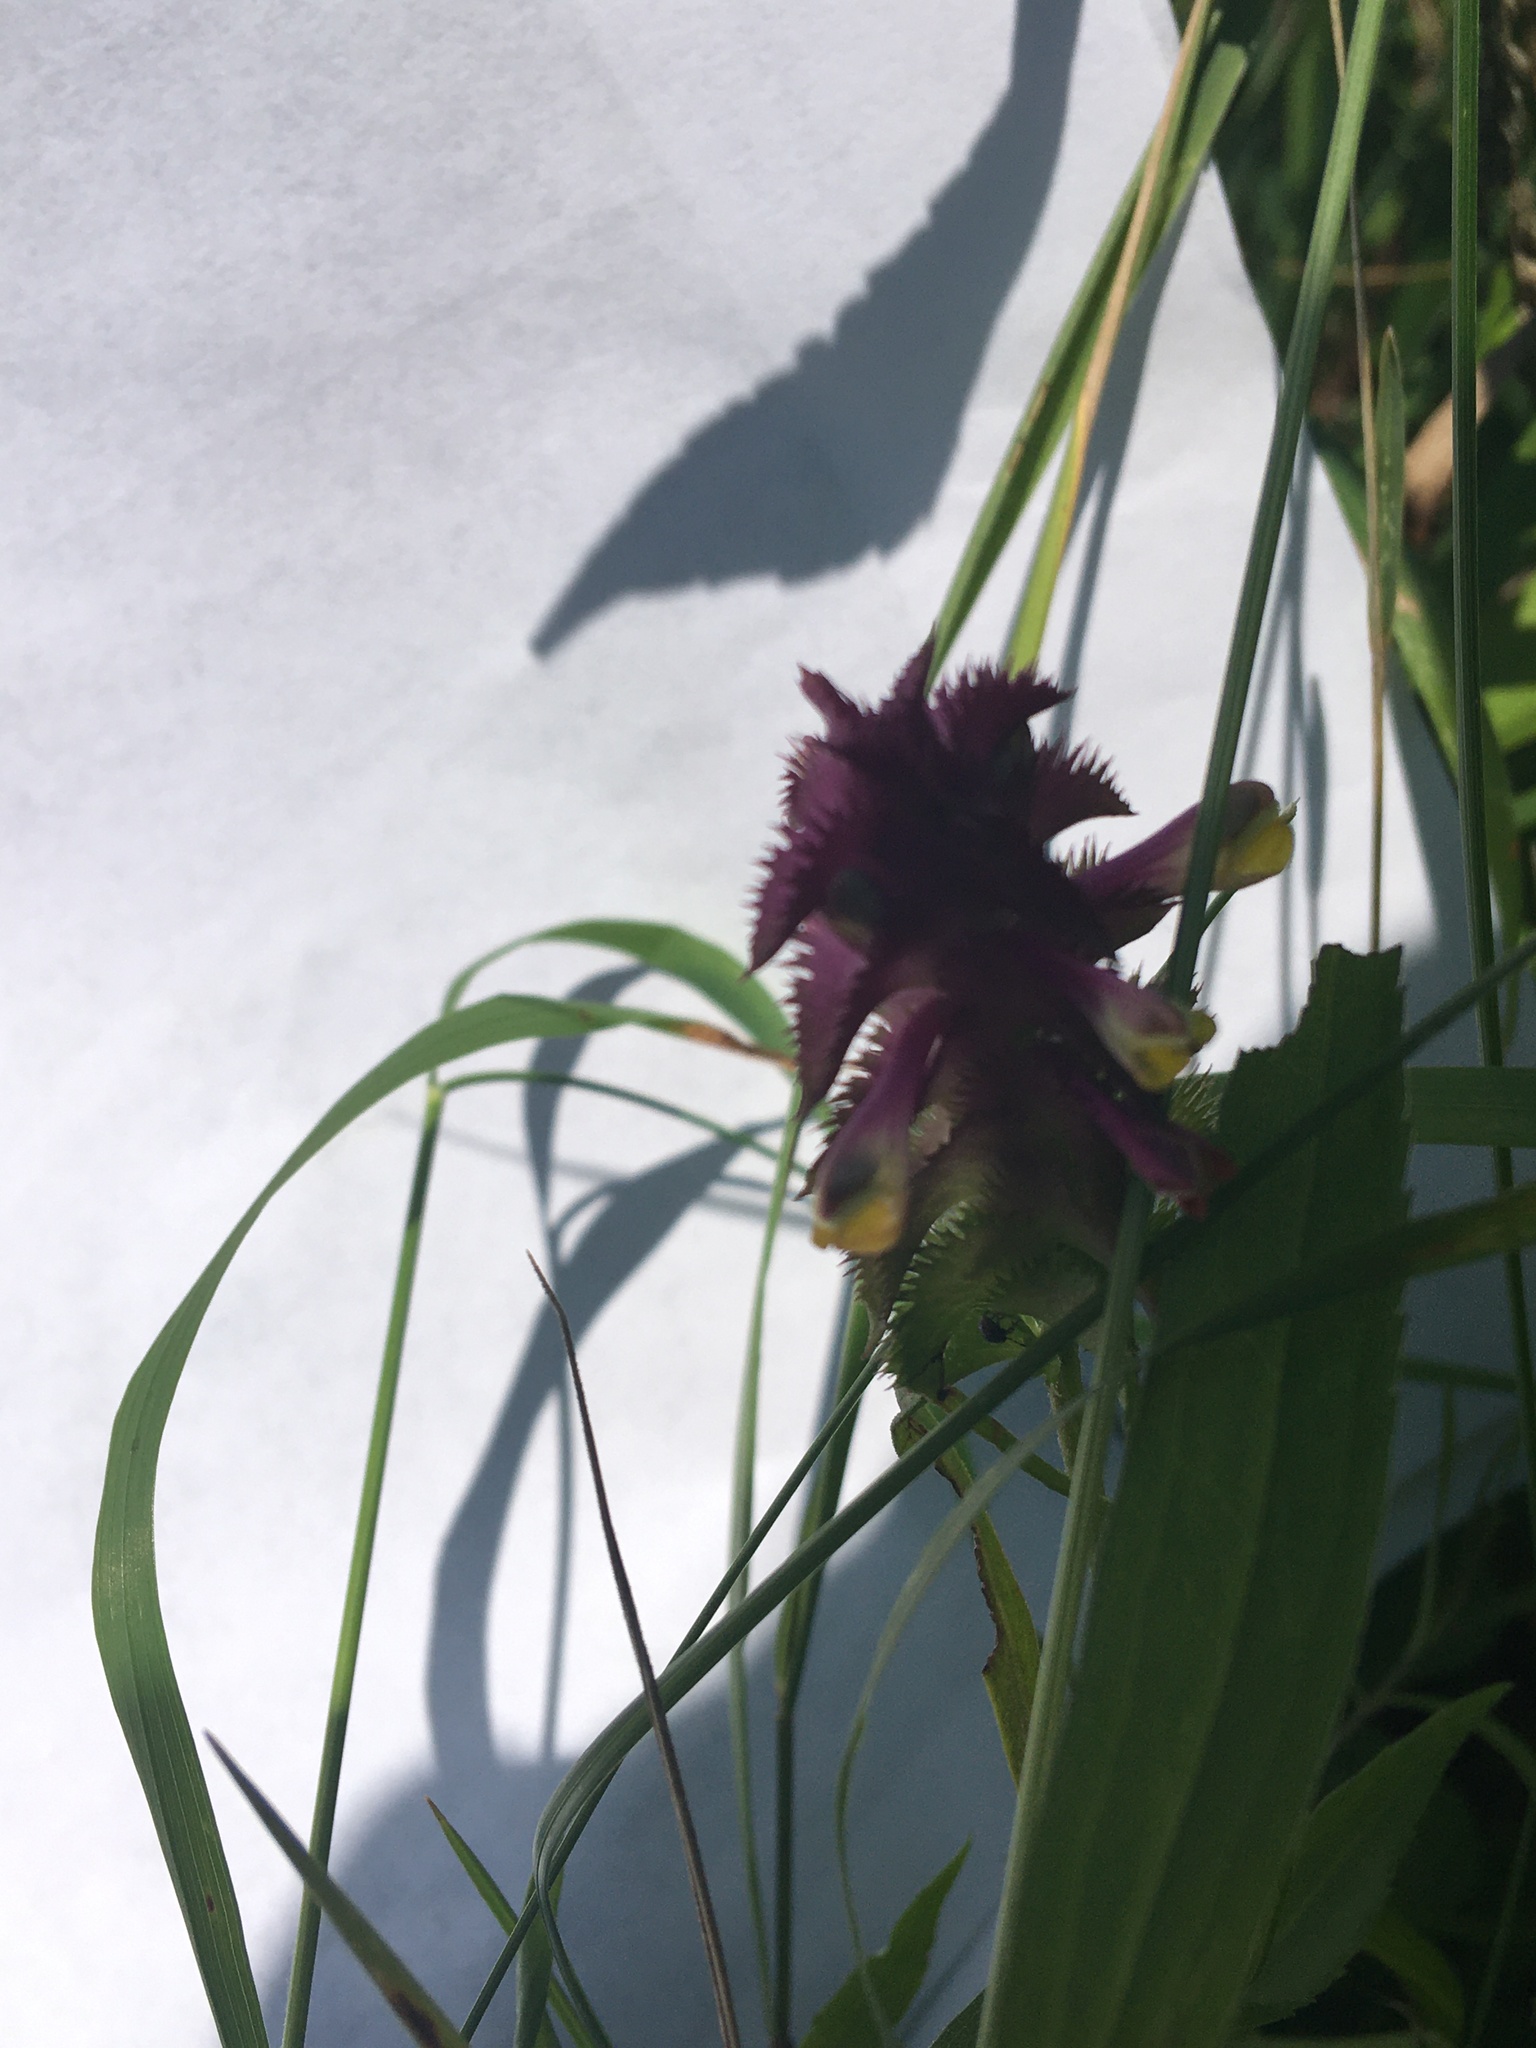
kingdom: Plantae
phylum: Tracheophyta
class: Magnoliopsida
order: Lamiales
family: Orobanchaceae
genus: Melampyrum
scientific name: Melampyrum cristatum
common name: Crested cow-wheat
